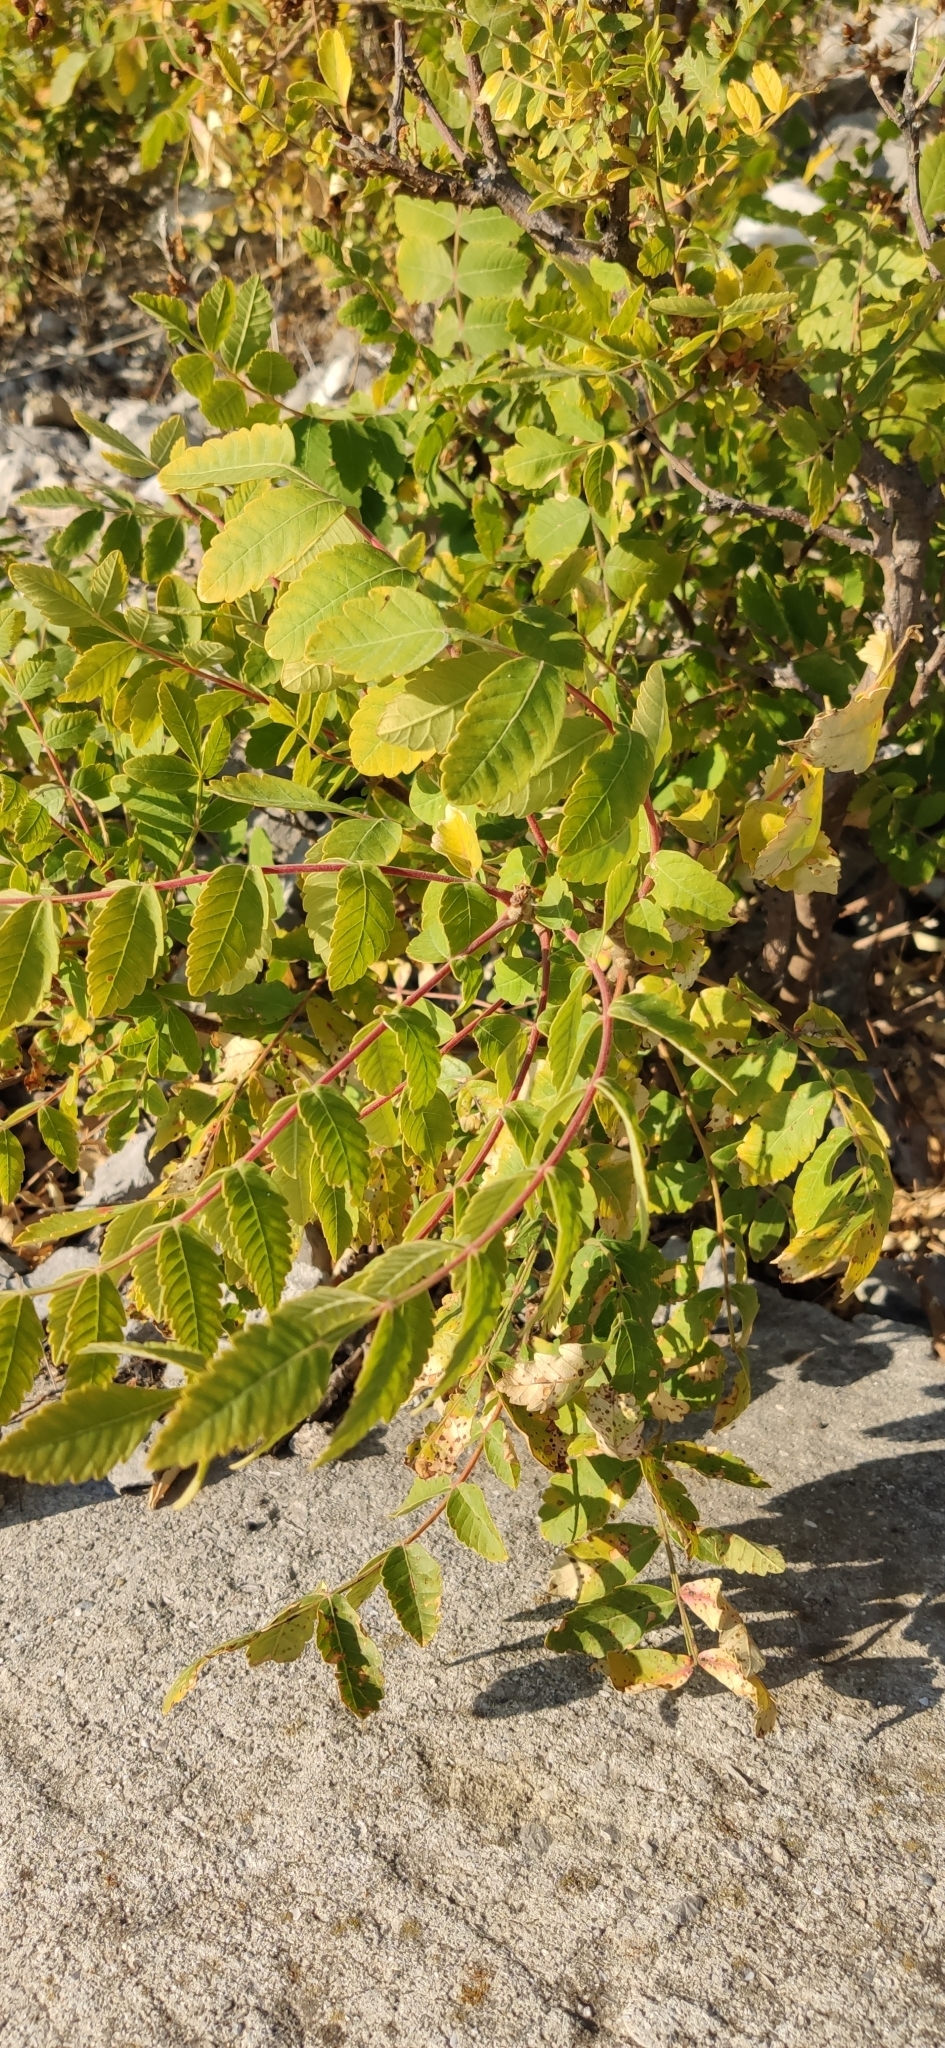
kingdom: Plantae
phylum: Tracheophyta
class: Magnoliopsida
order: Sapindales
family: Anacardiaceae
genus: Rhus
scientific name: Rhus coriaria
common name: Tanner's sumach
